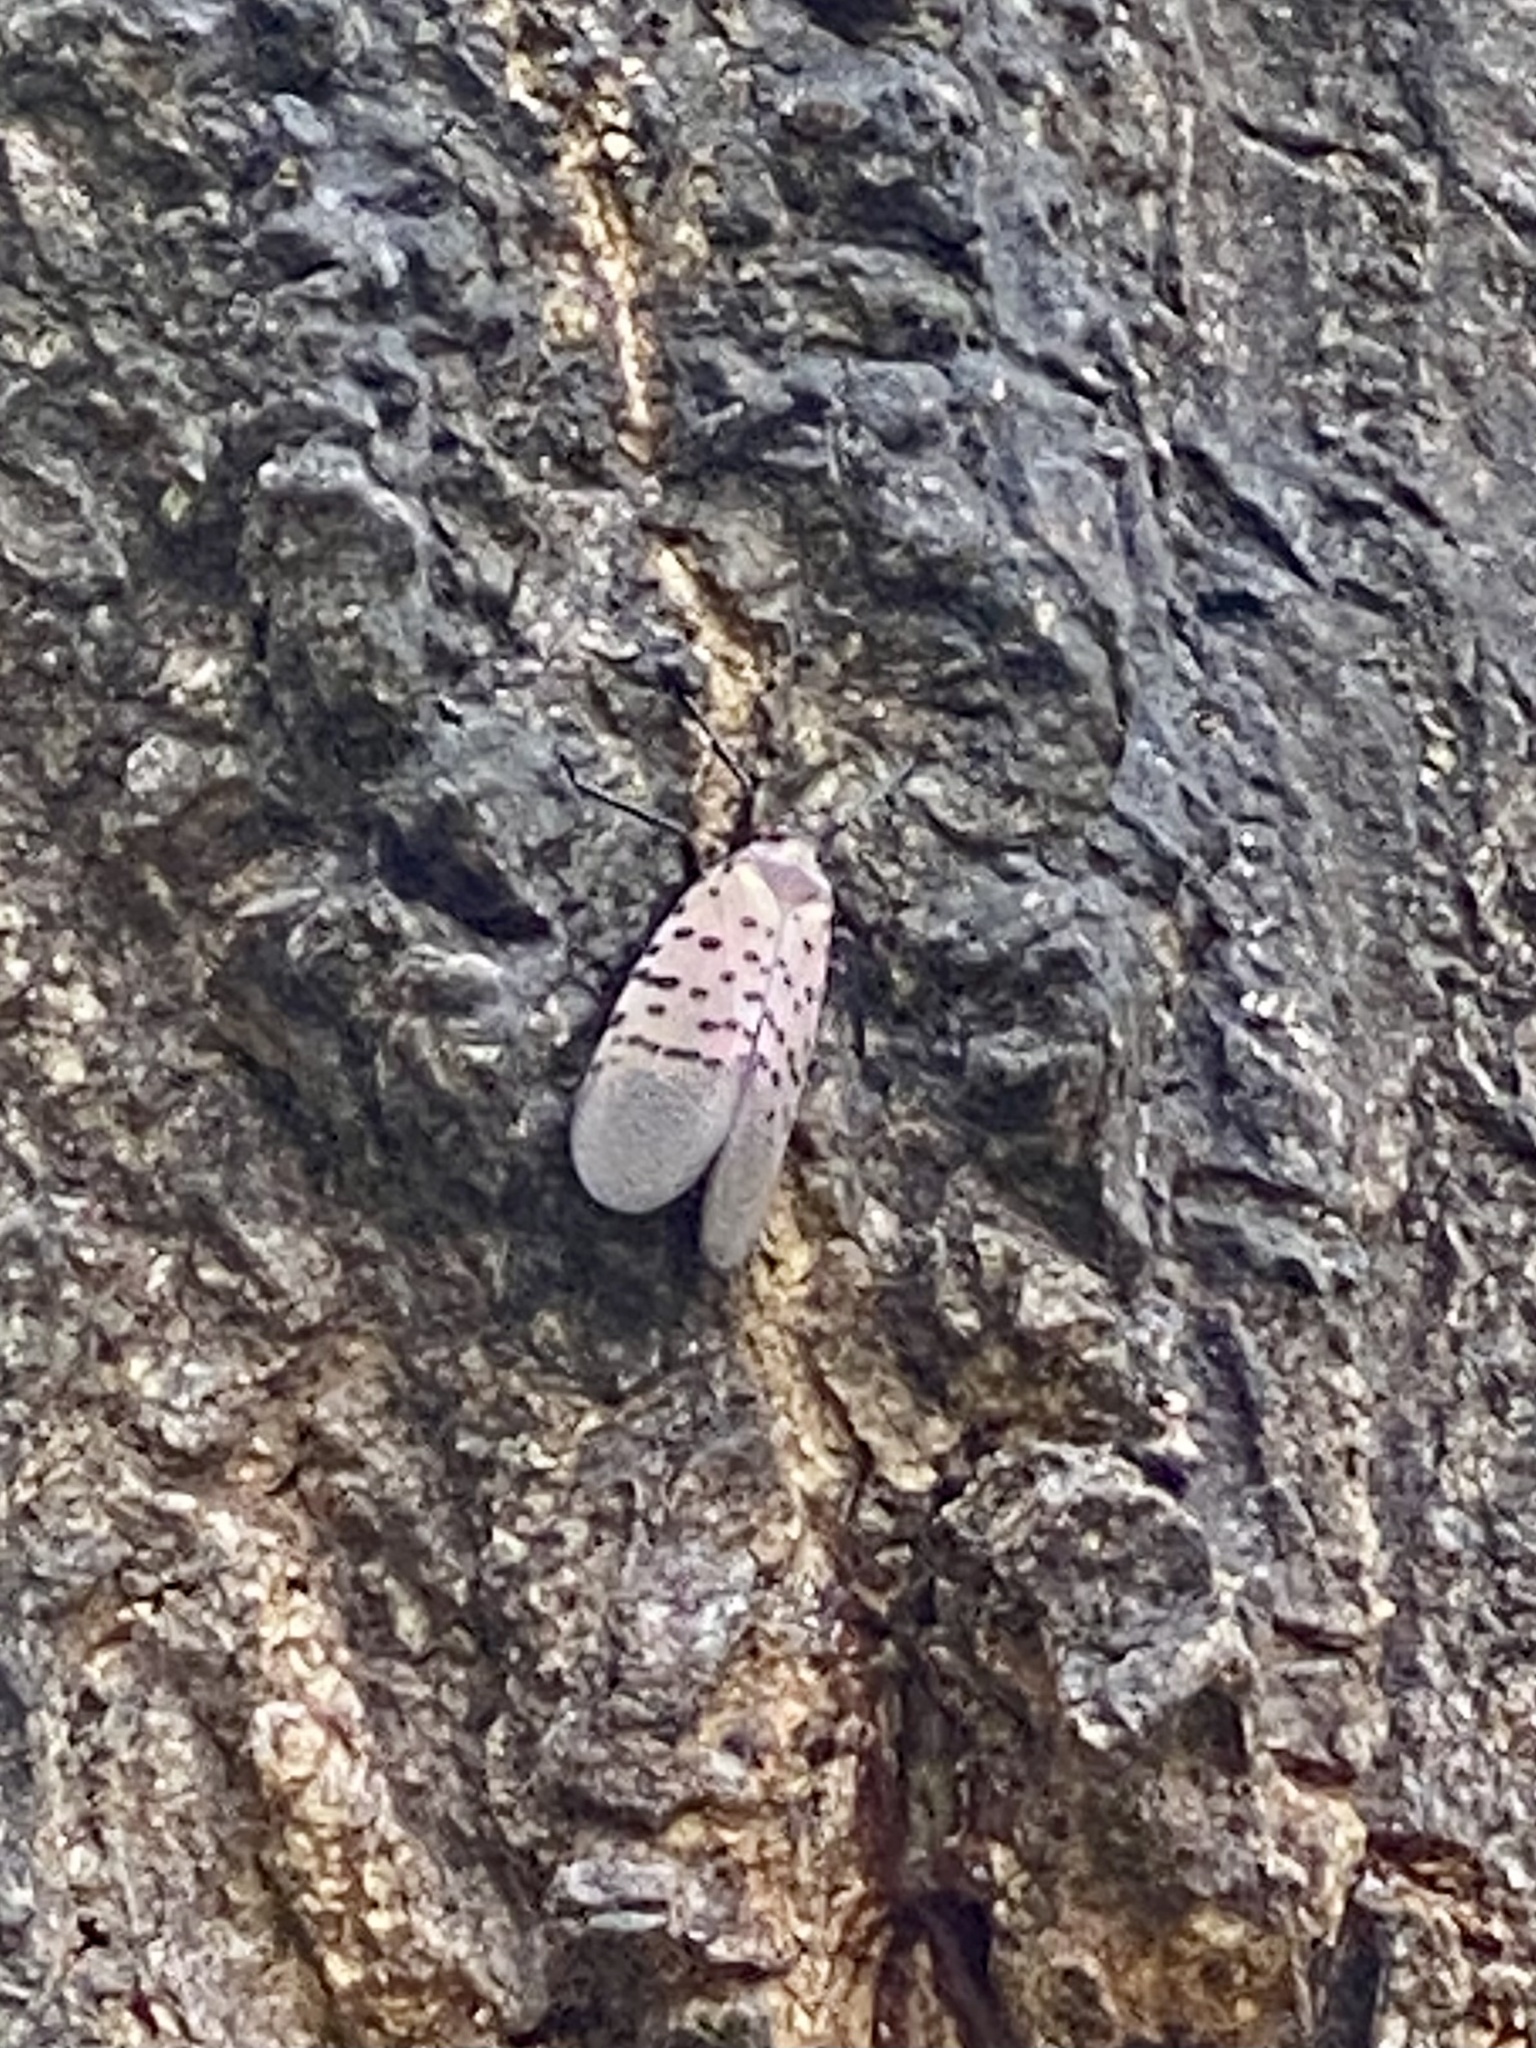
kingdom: Animalia
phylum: Arthropoda
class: Insecta
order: Hemiptera
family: Fulgoridae
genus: Lycorma
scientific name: Lycorma delicatula
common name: Spotted lanternfly
